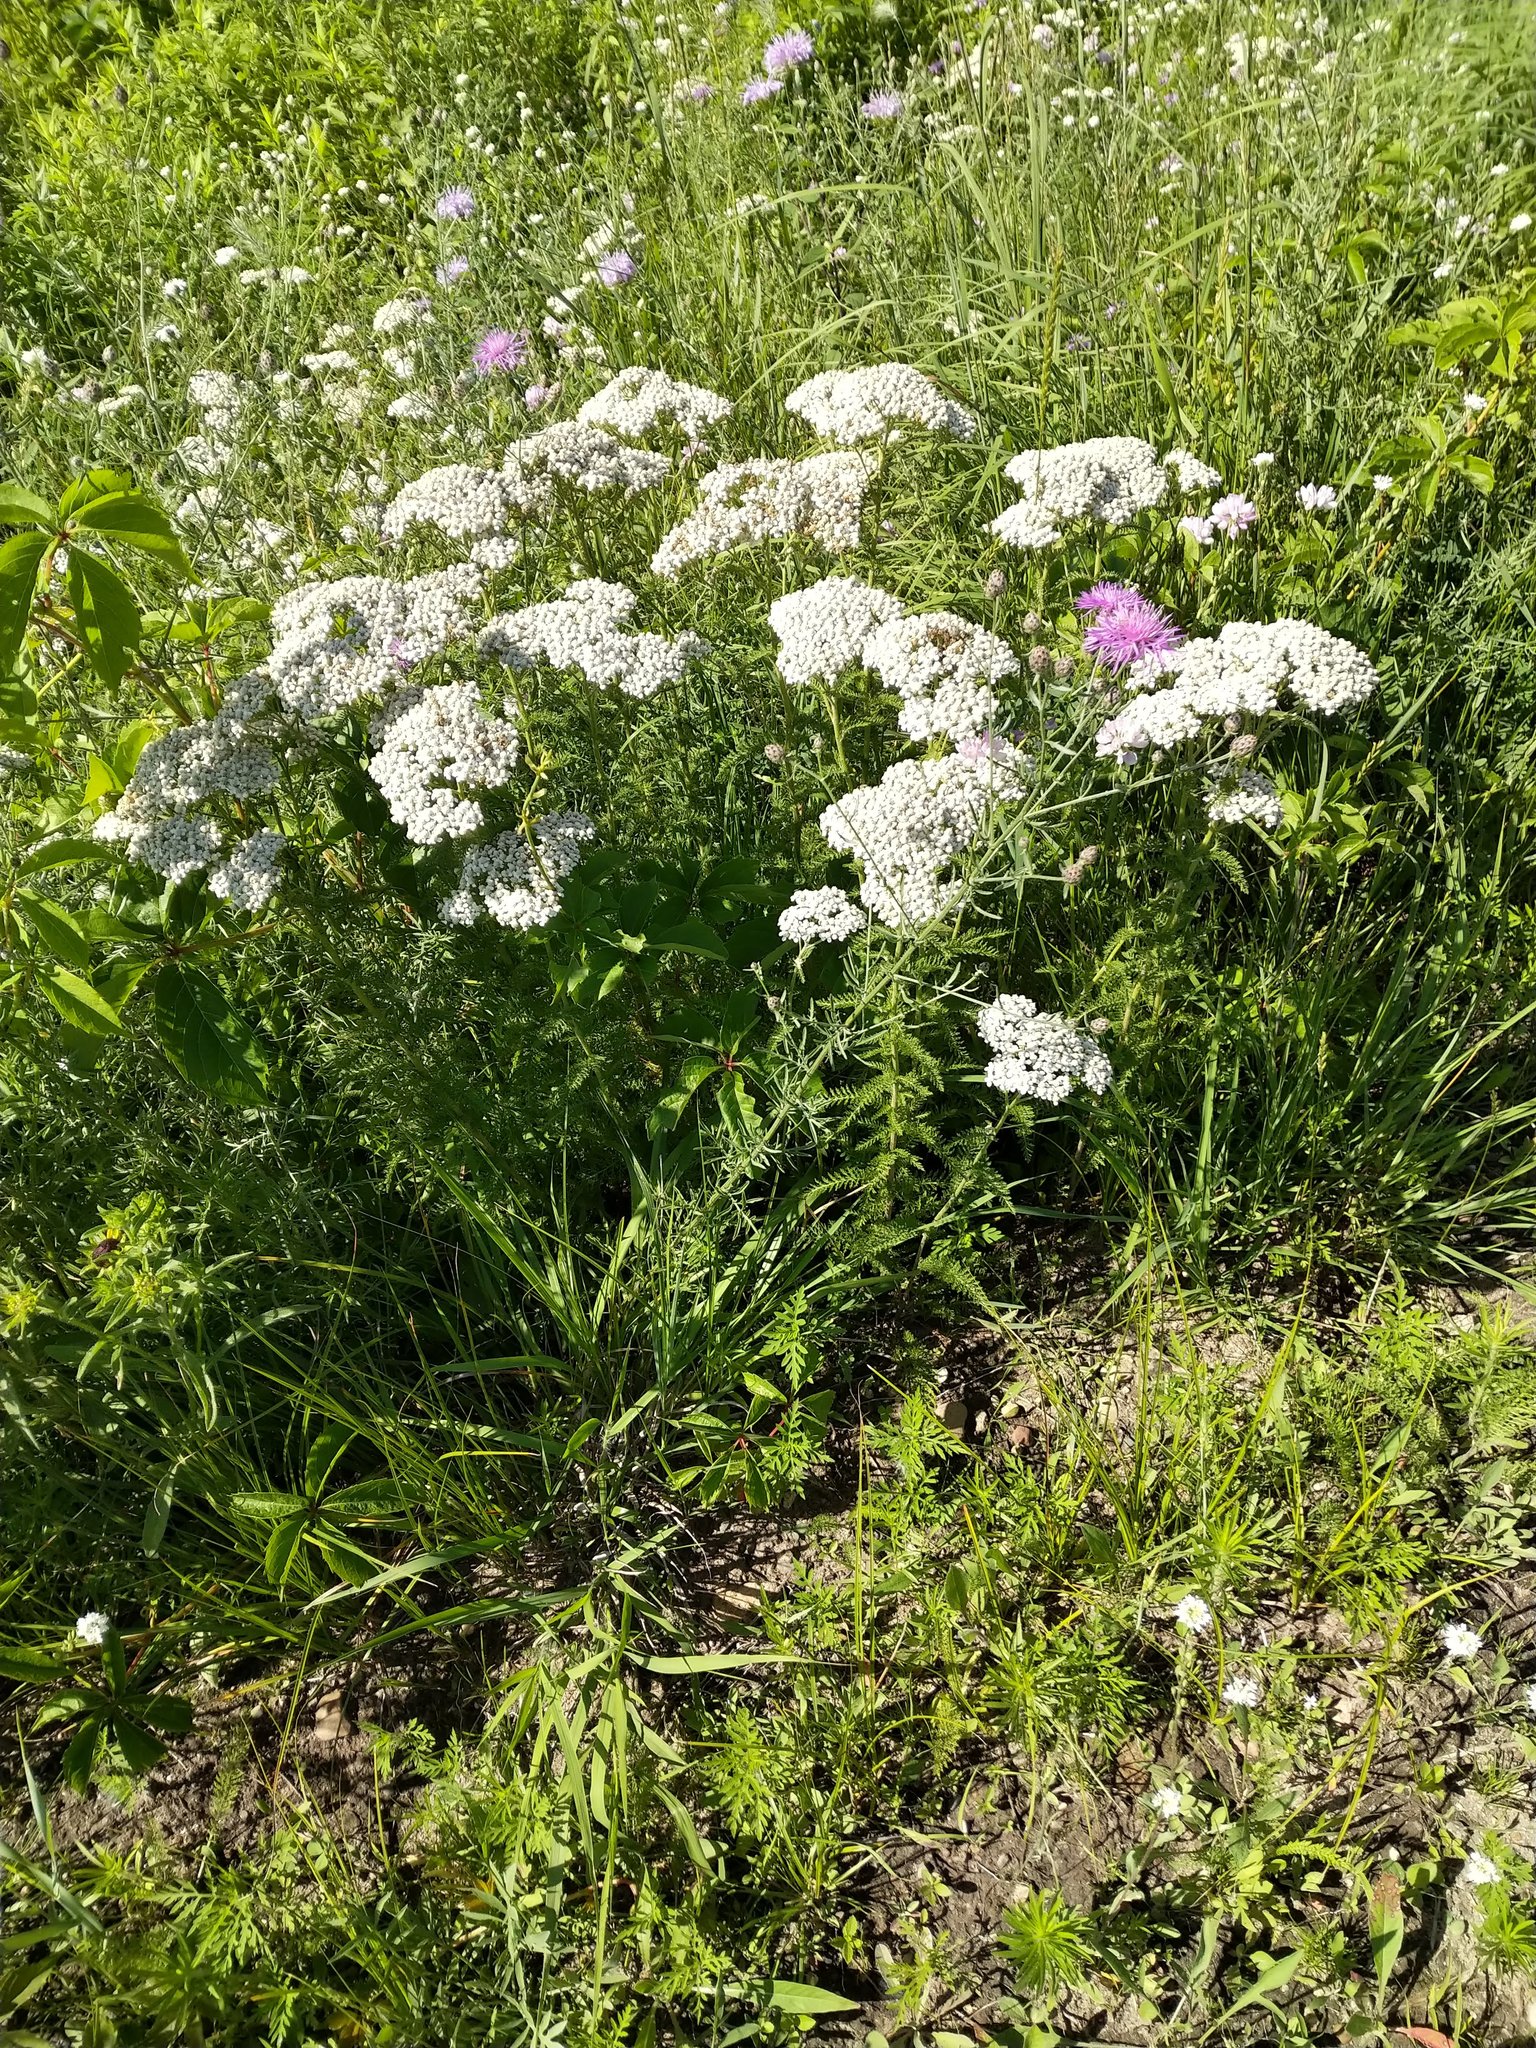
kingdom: Plantae
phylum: Tracheophyta
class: Magnoliopsida
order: Asterales
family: Asteraceae
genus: Achillea
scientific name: Achillea millefolium
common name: Yarrow
